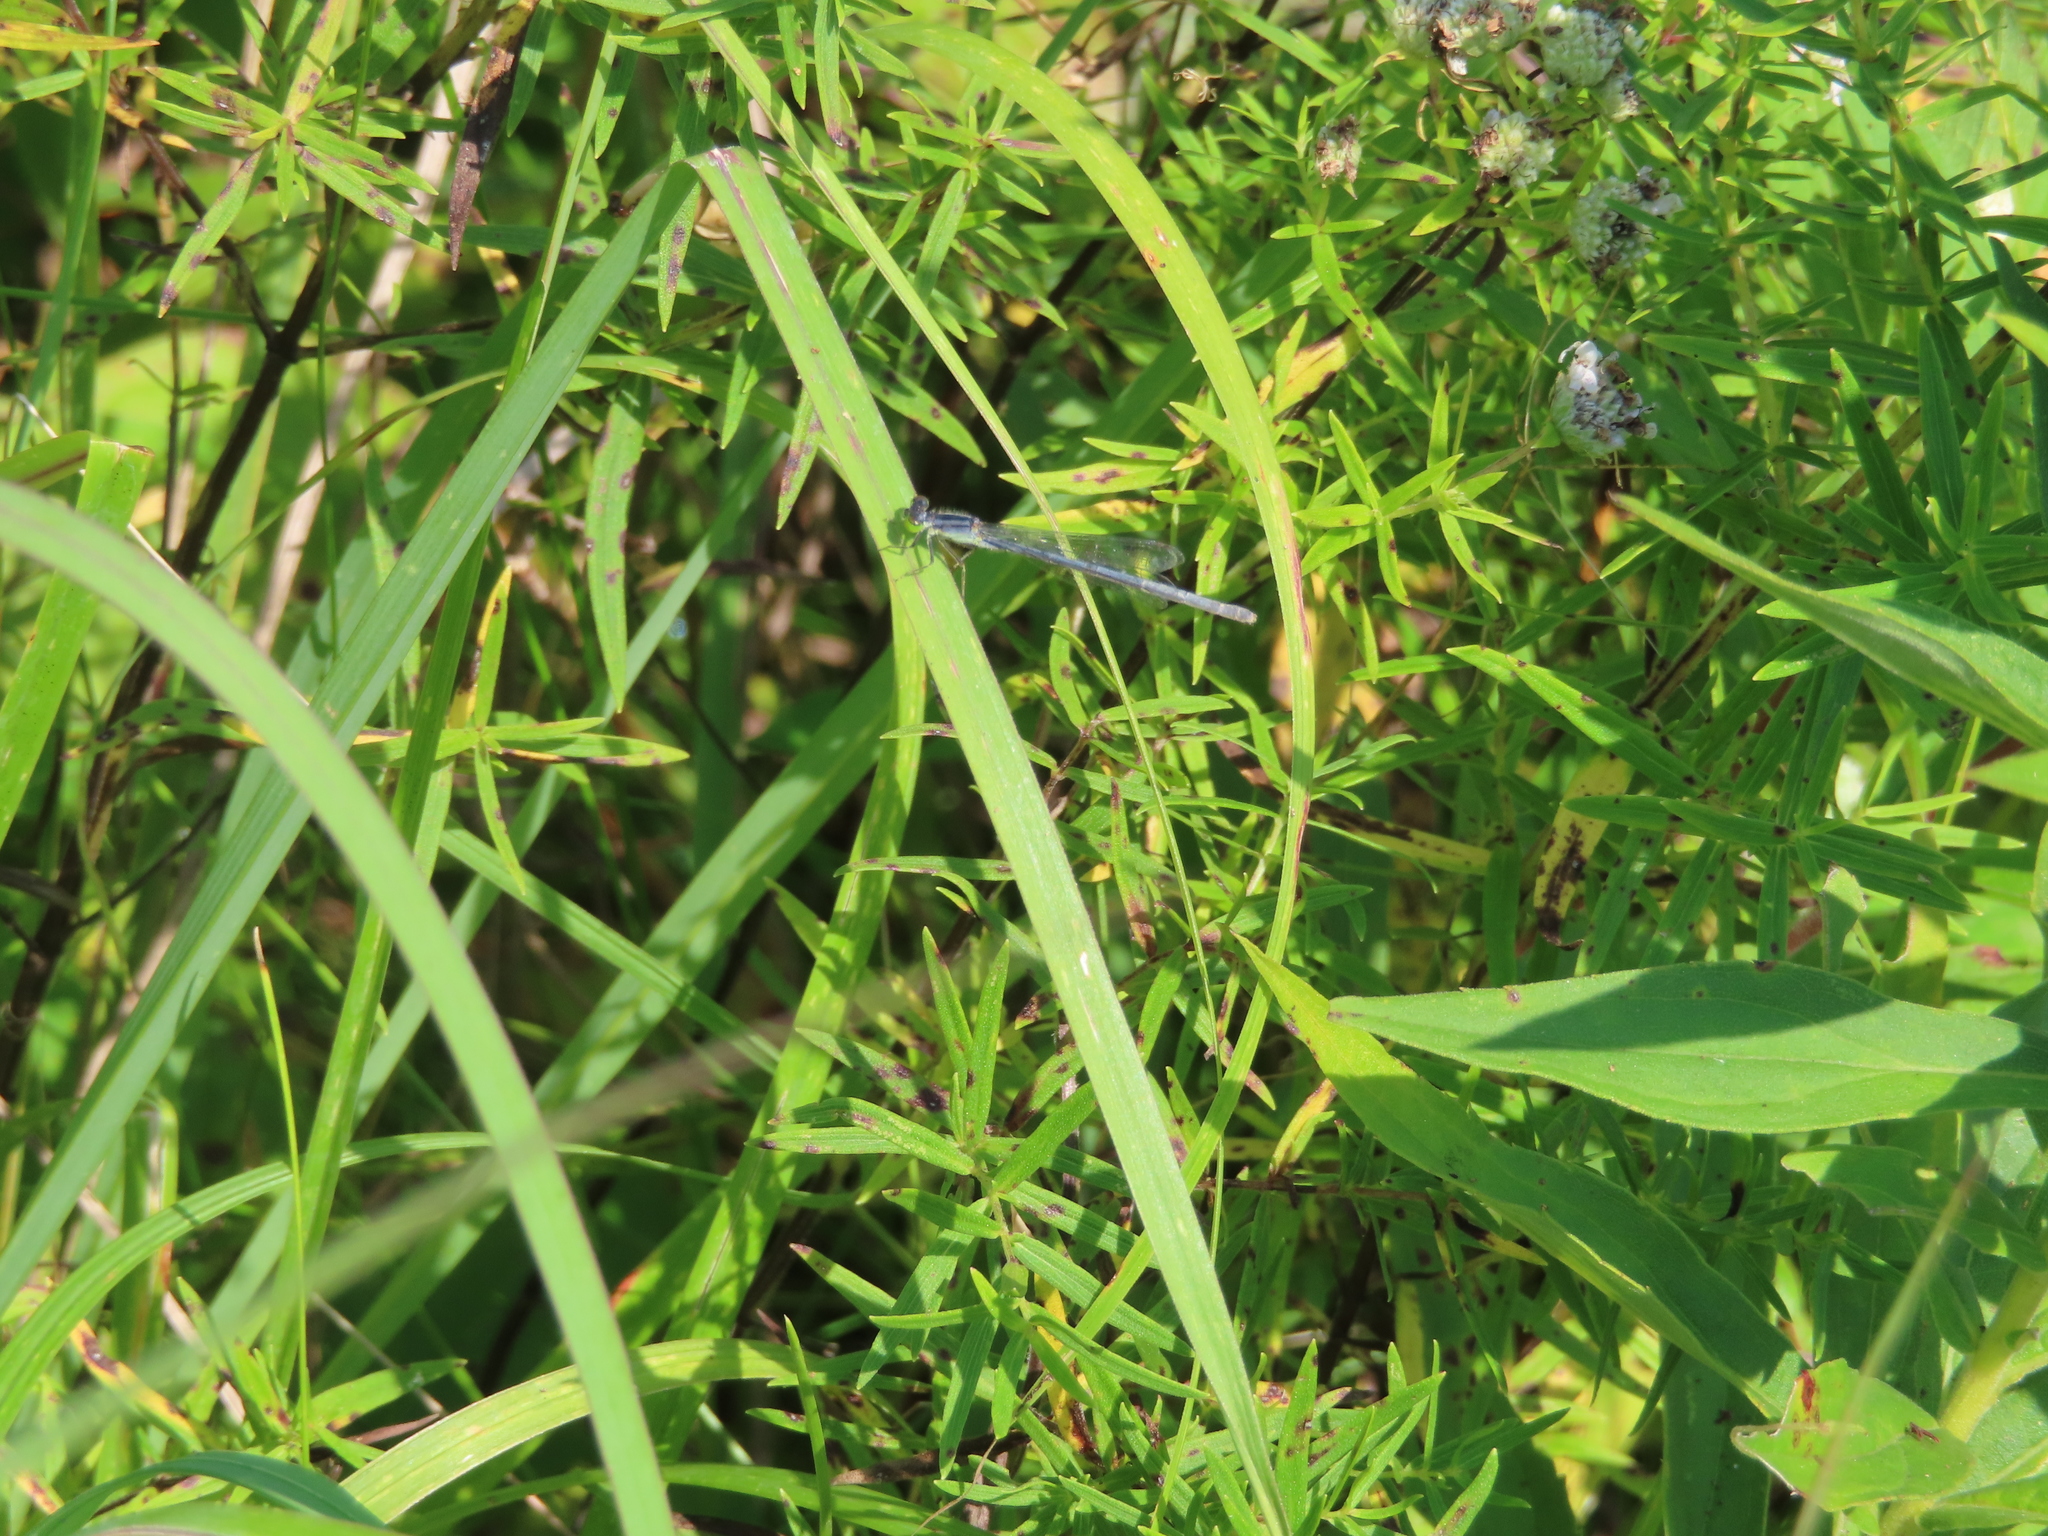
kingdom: Animalia
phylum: Arthropoda
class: Insecta
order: Odonata
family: Coenagrionidae
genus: Ischnura
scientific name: Ischnura verticalis
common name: Eastern forktail
